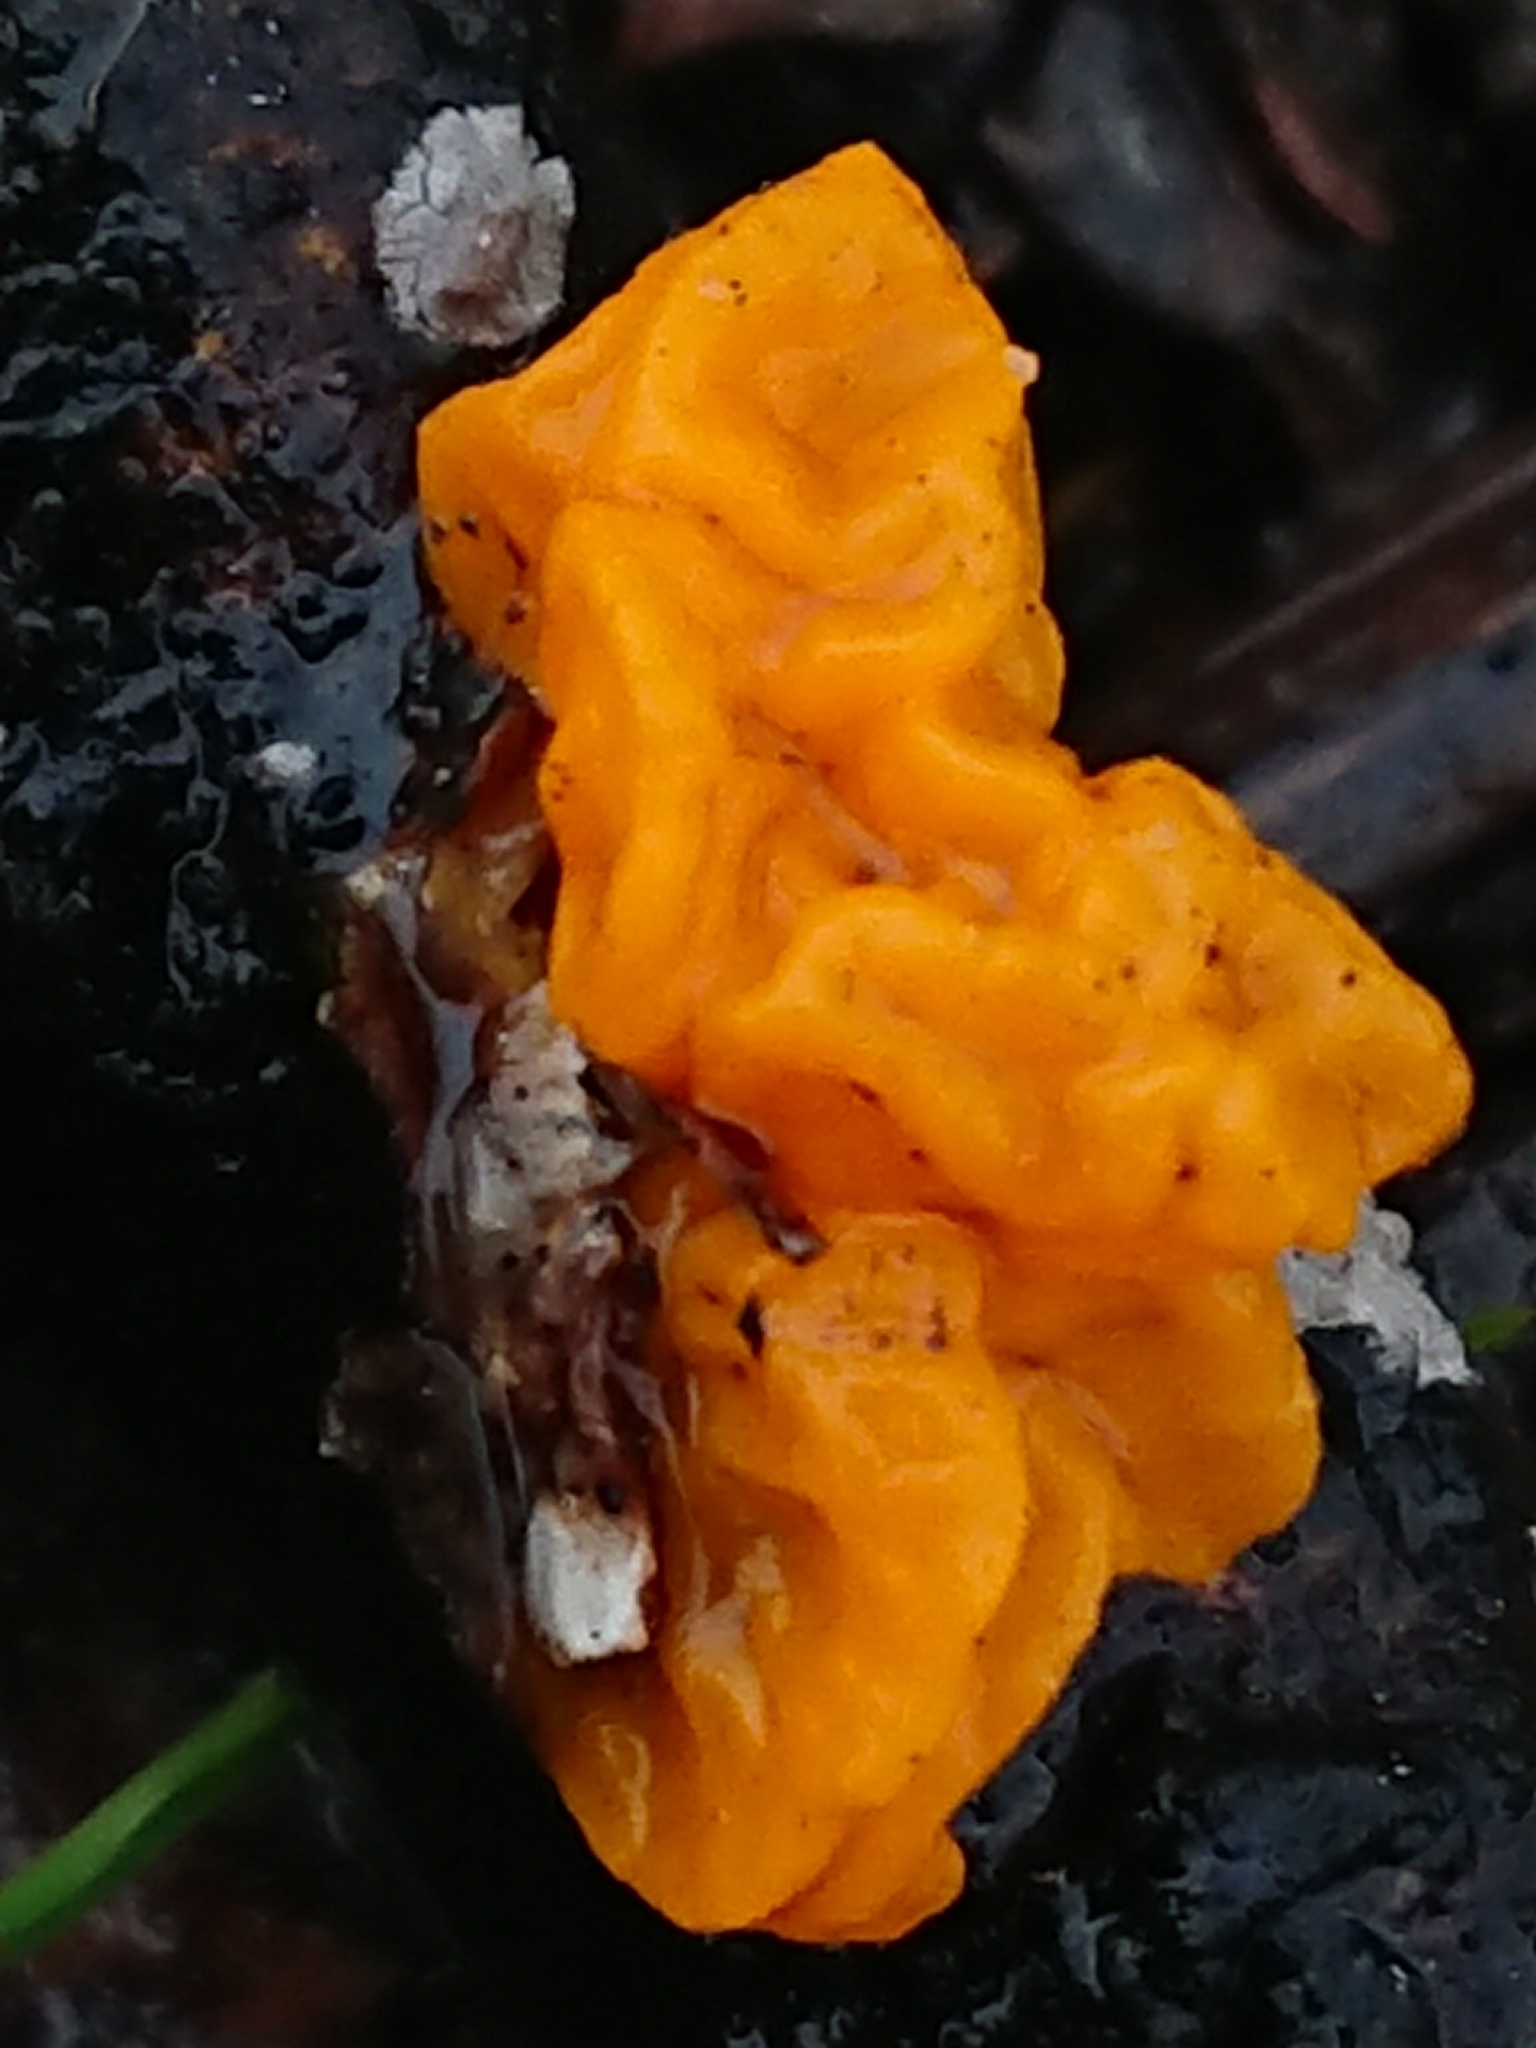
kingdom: Fungi
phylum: Basidiomycota
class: Tremellomycetes
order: Tremellales
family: Tremellaceae
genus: Tremella
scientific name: Tremella mesenterica
